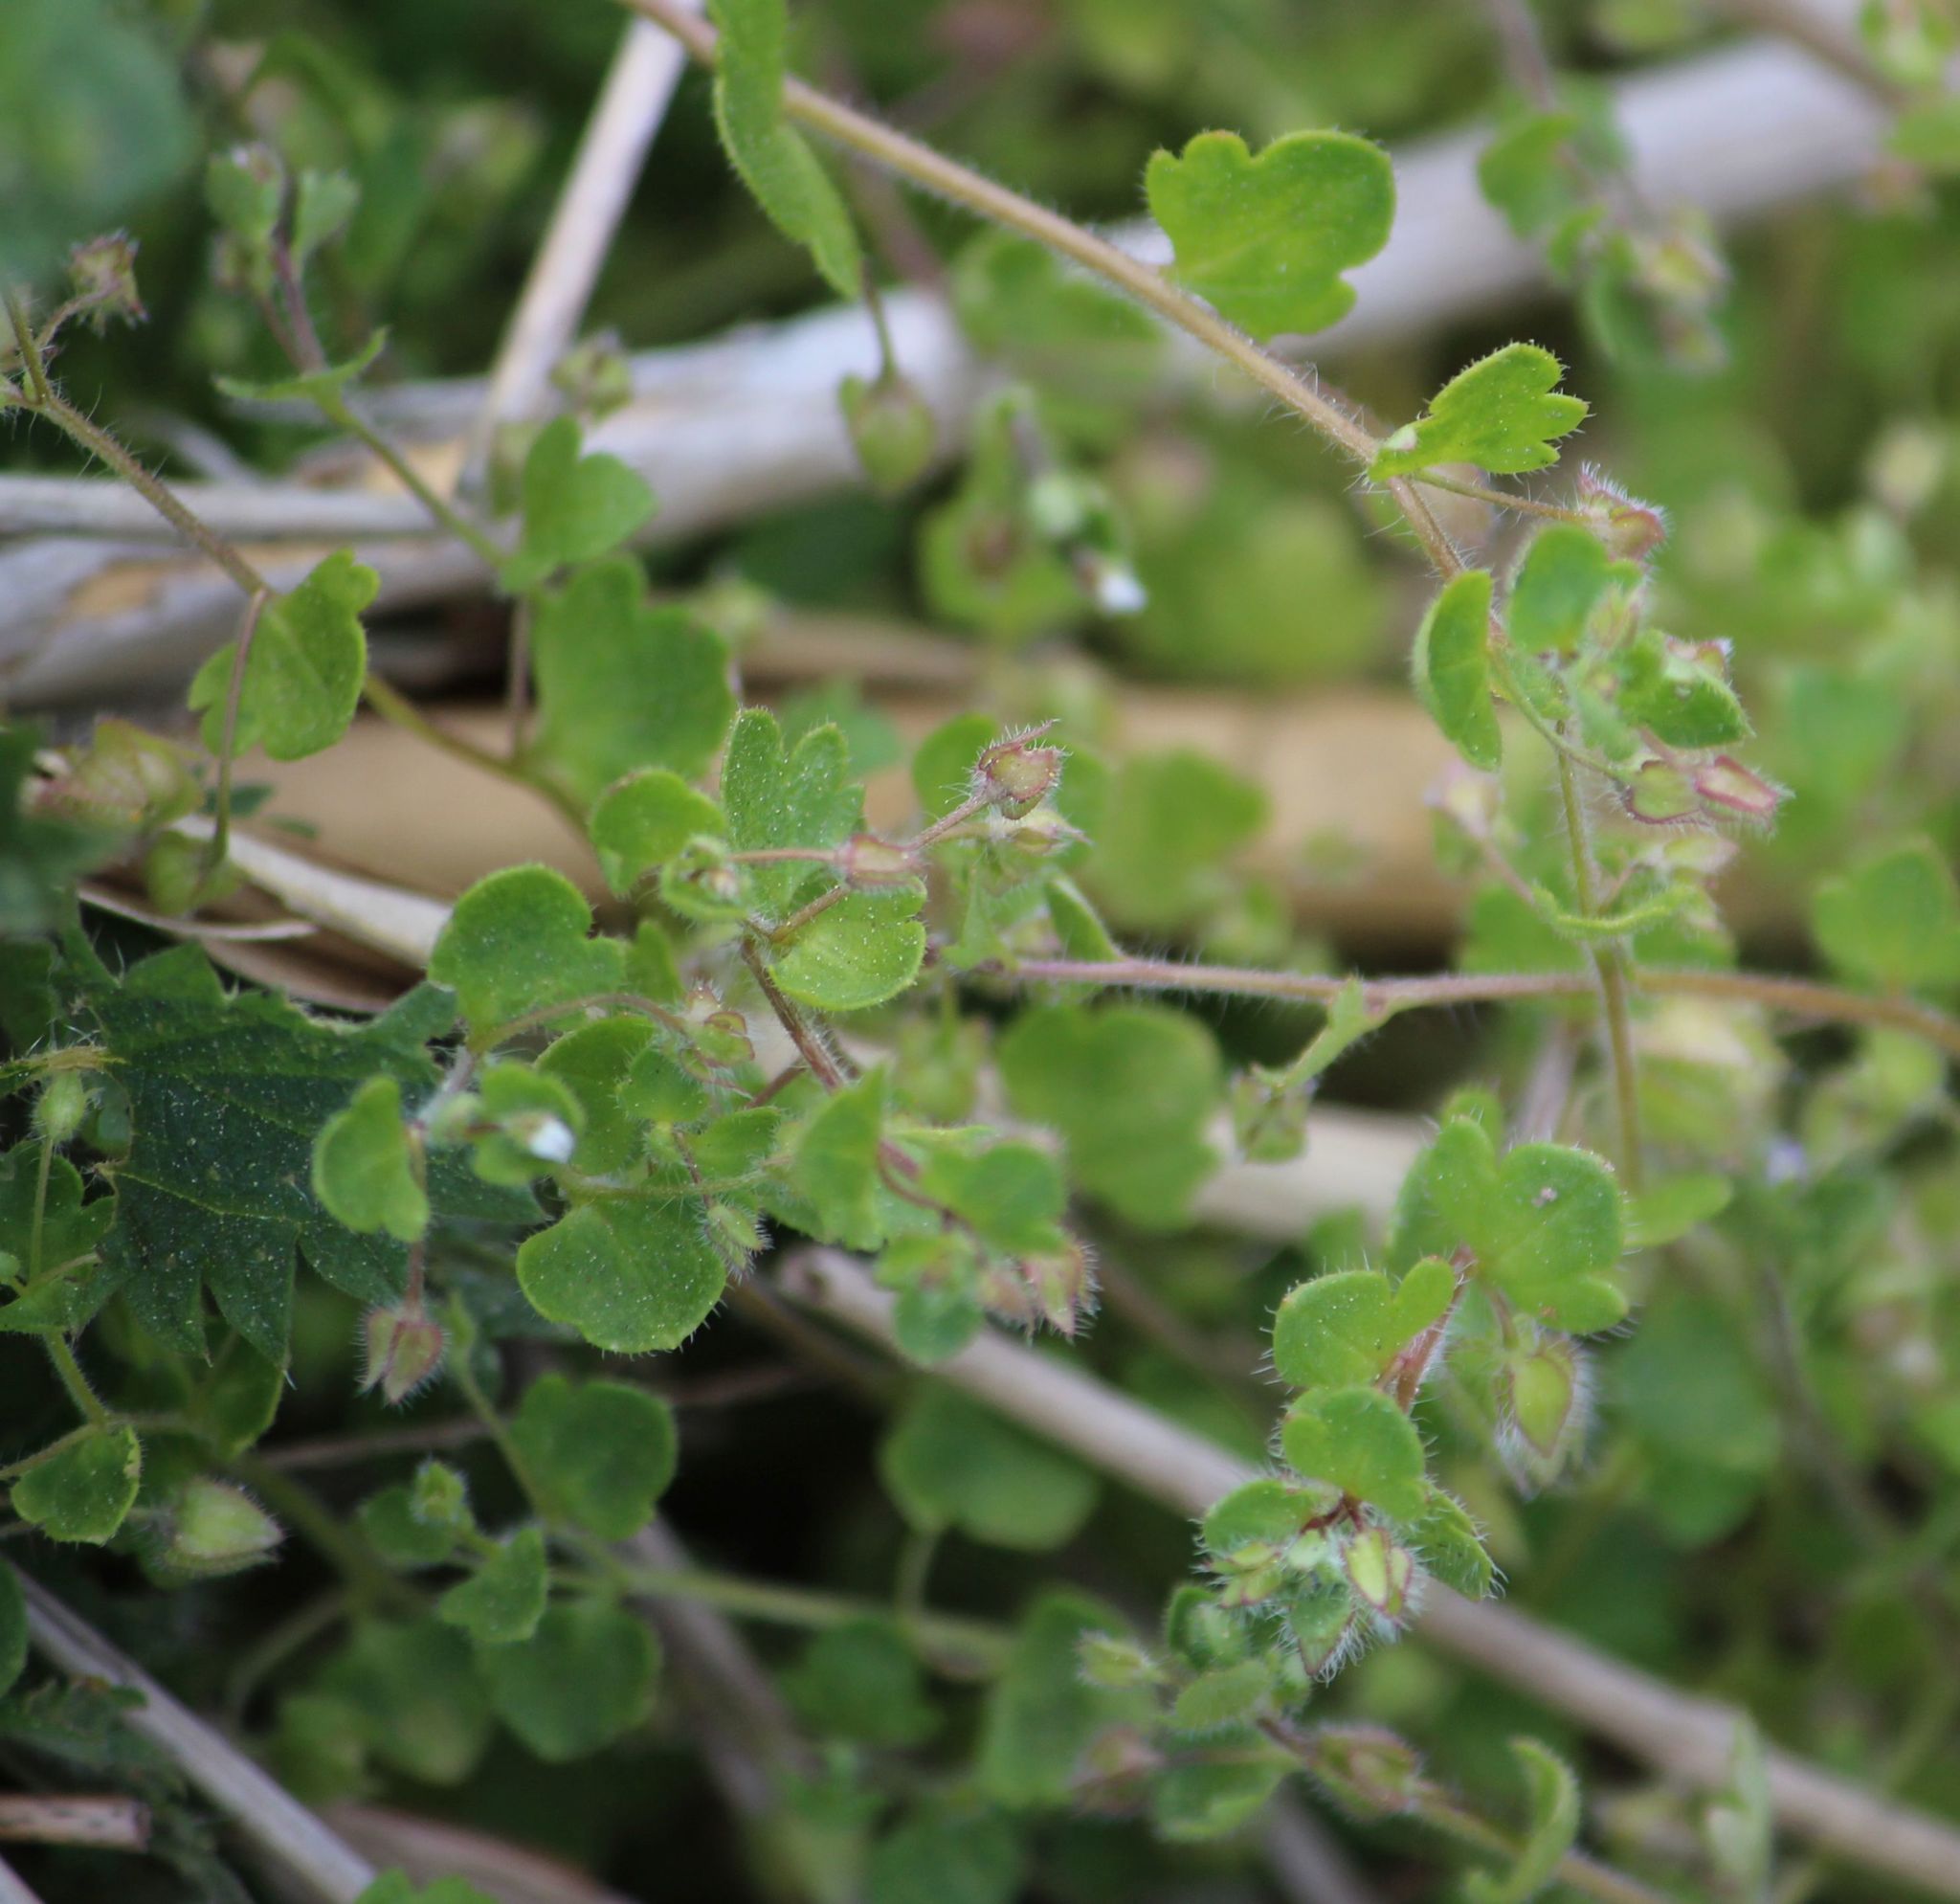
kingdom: Plantae
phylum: Tracheophyta
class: Magnoliopsida
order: Lamiales
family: Plantaginaceae
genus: Veronica
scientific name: Veronica sublobata
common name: False ivy-leaved speedwell
